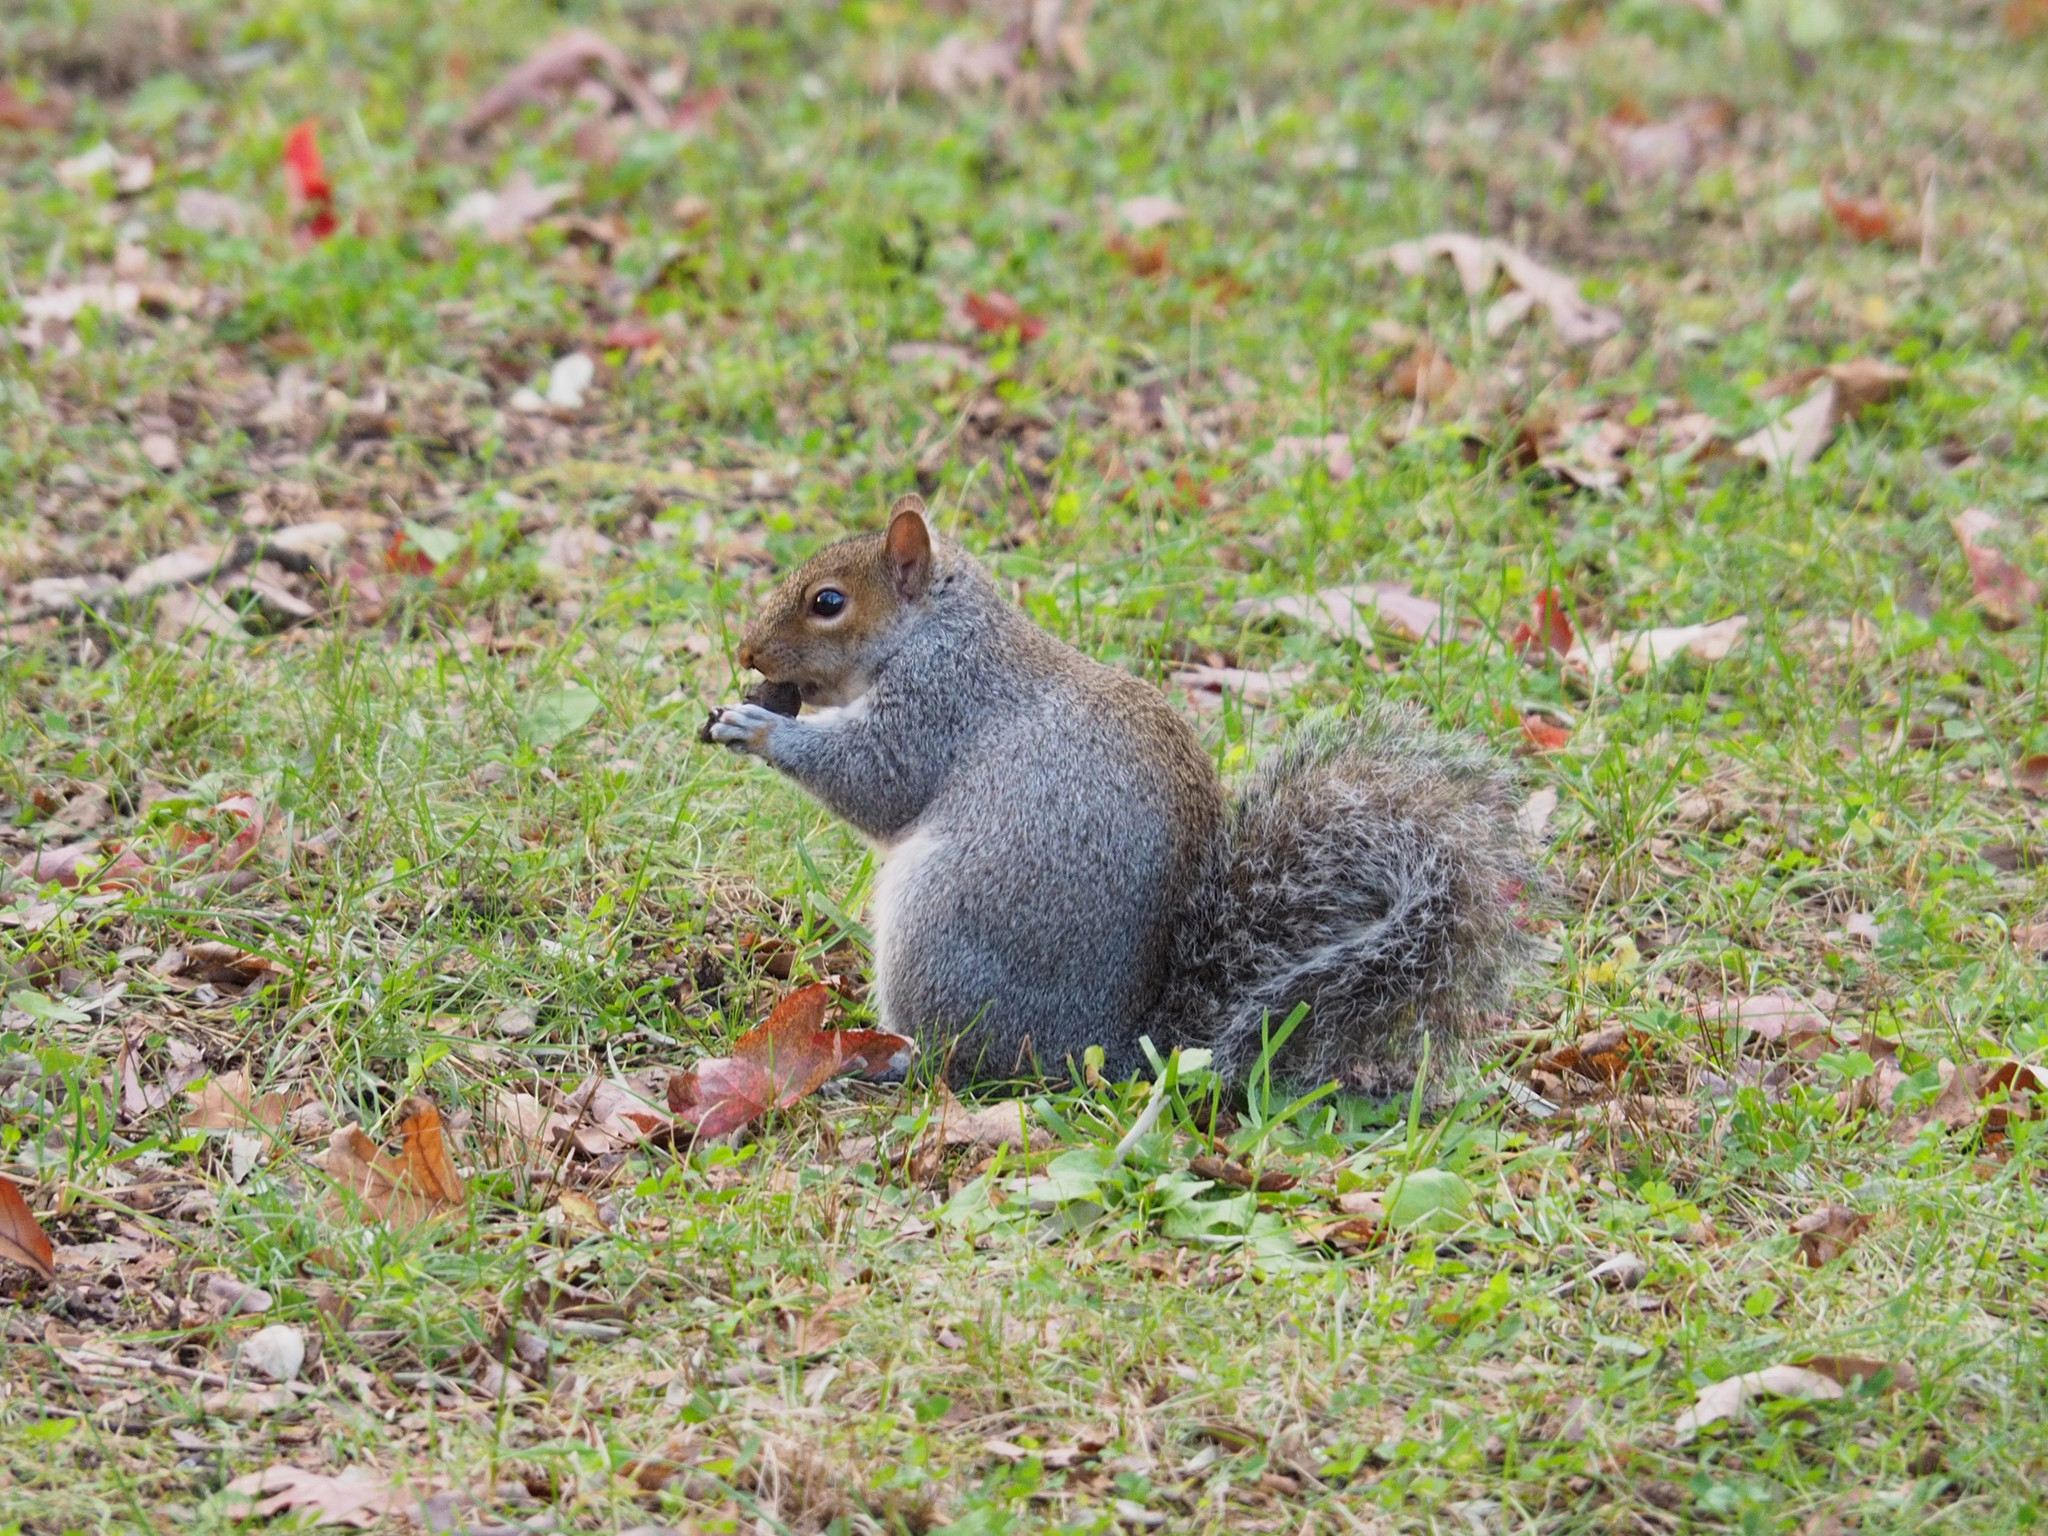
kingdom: Animalia
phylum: Chordata
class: Mammalia
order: Rodentia
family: Sciuridae
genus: Sciurus
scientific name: Sciurus carolinensis
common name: Eastern gray squirrel
